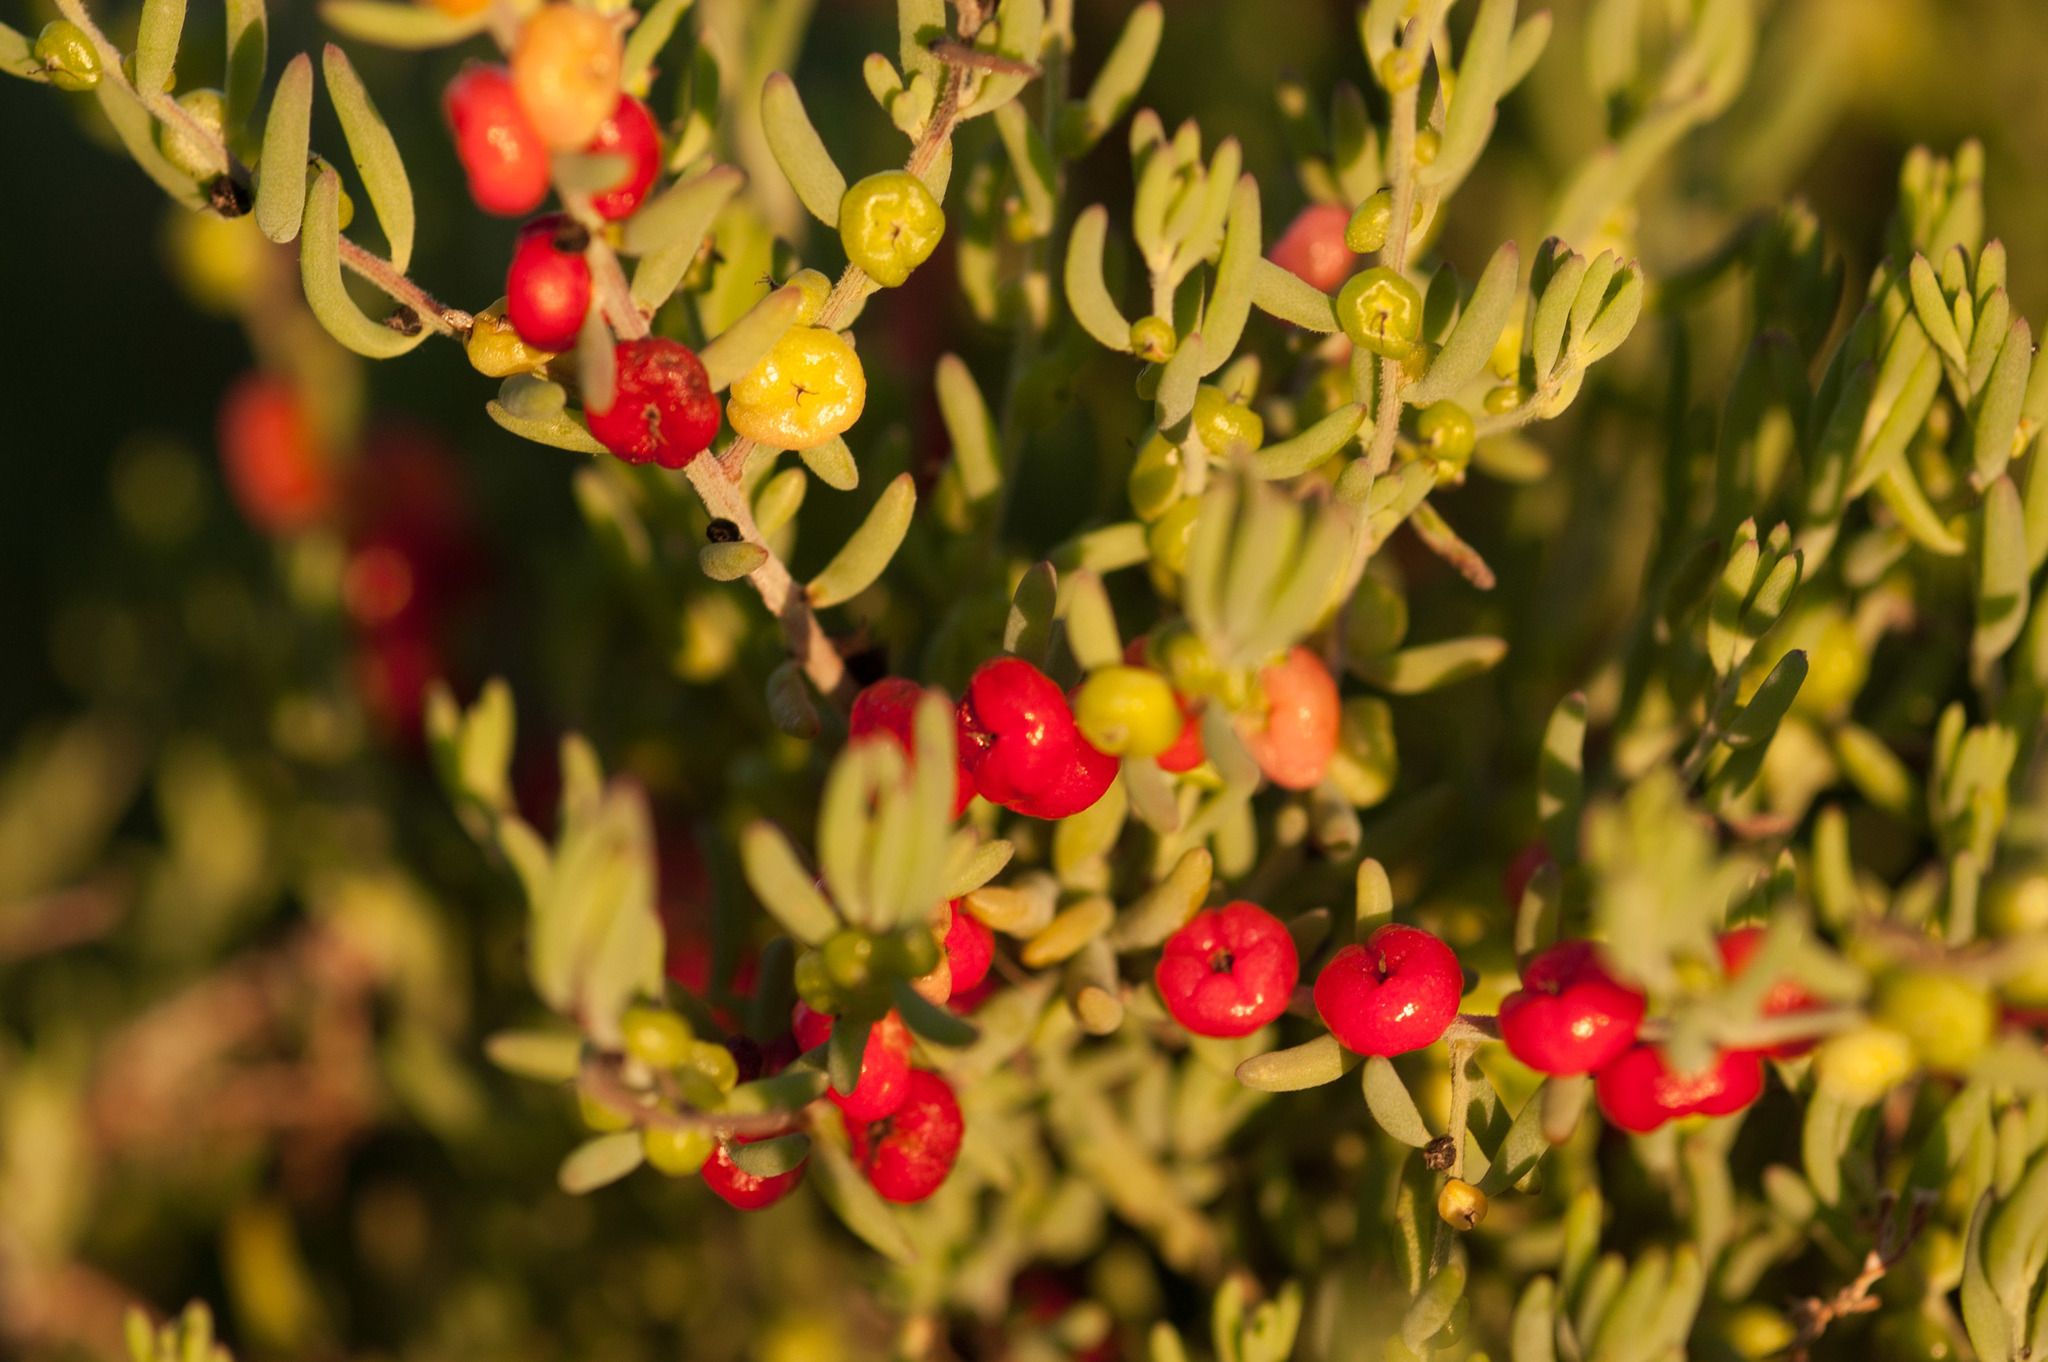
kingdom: Plantae
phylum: Tracheophyta
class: Magnoliopsida
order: Caryophyllales
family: Amaranthaceae
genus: Enchylaena
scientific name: Enchylaena tomentosa
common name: Ruby saltbush
